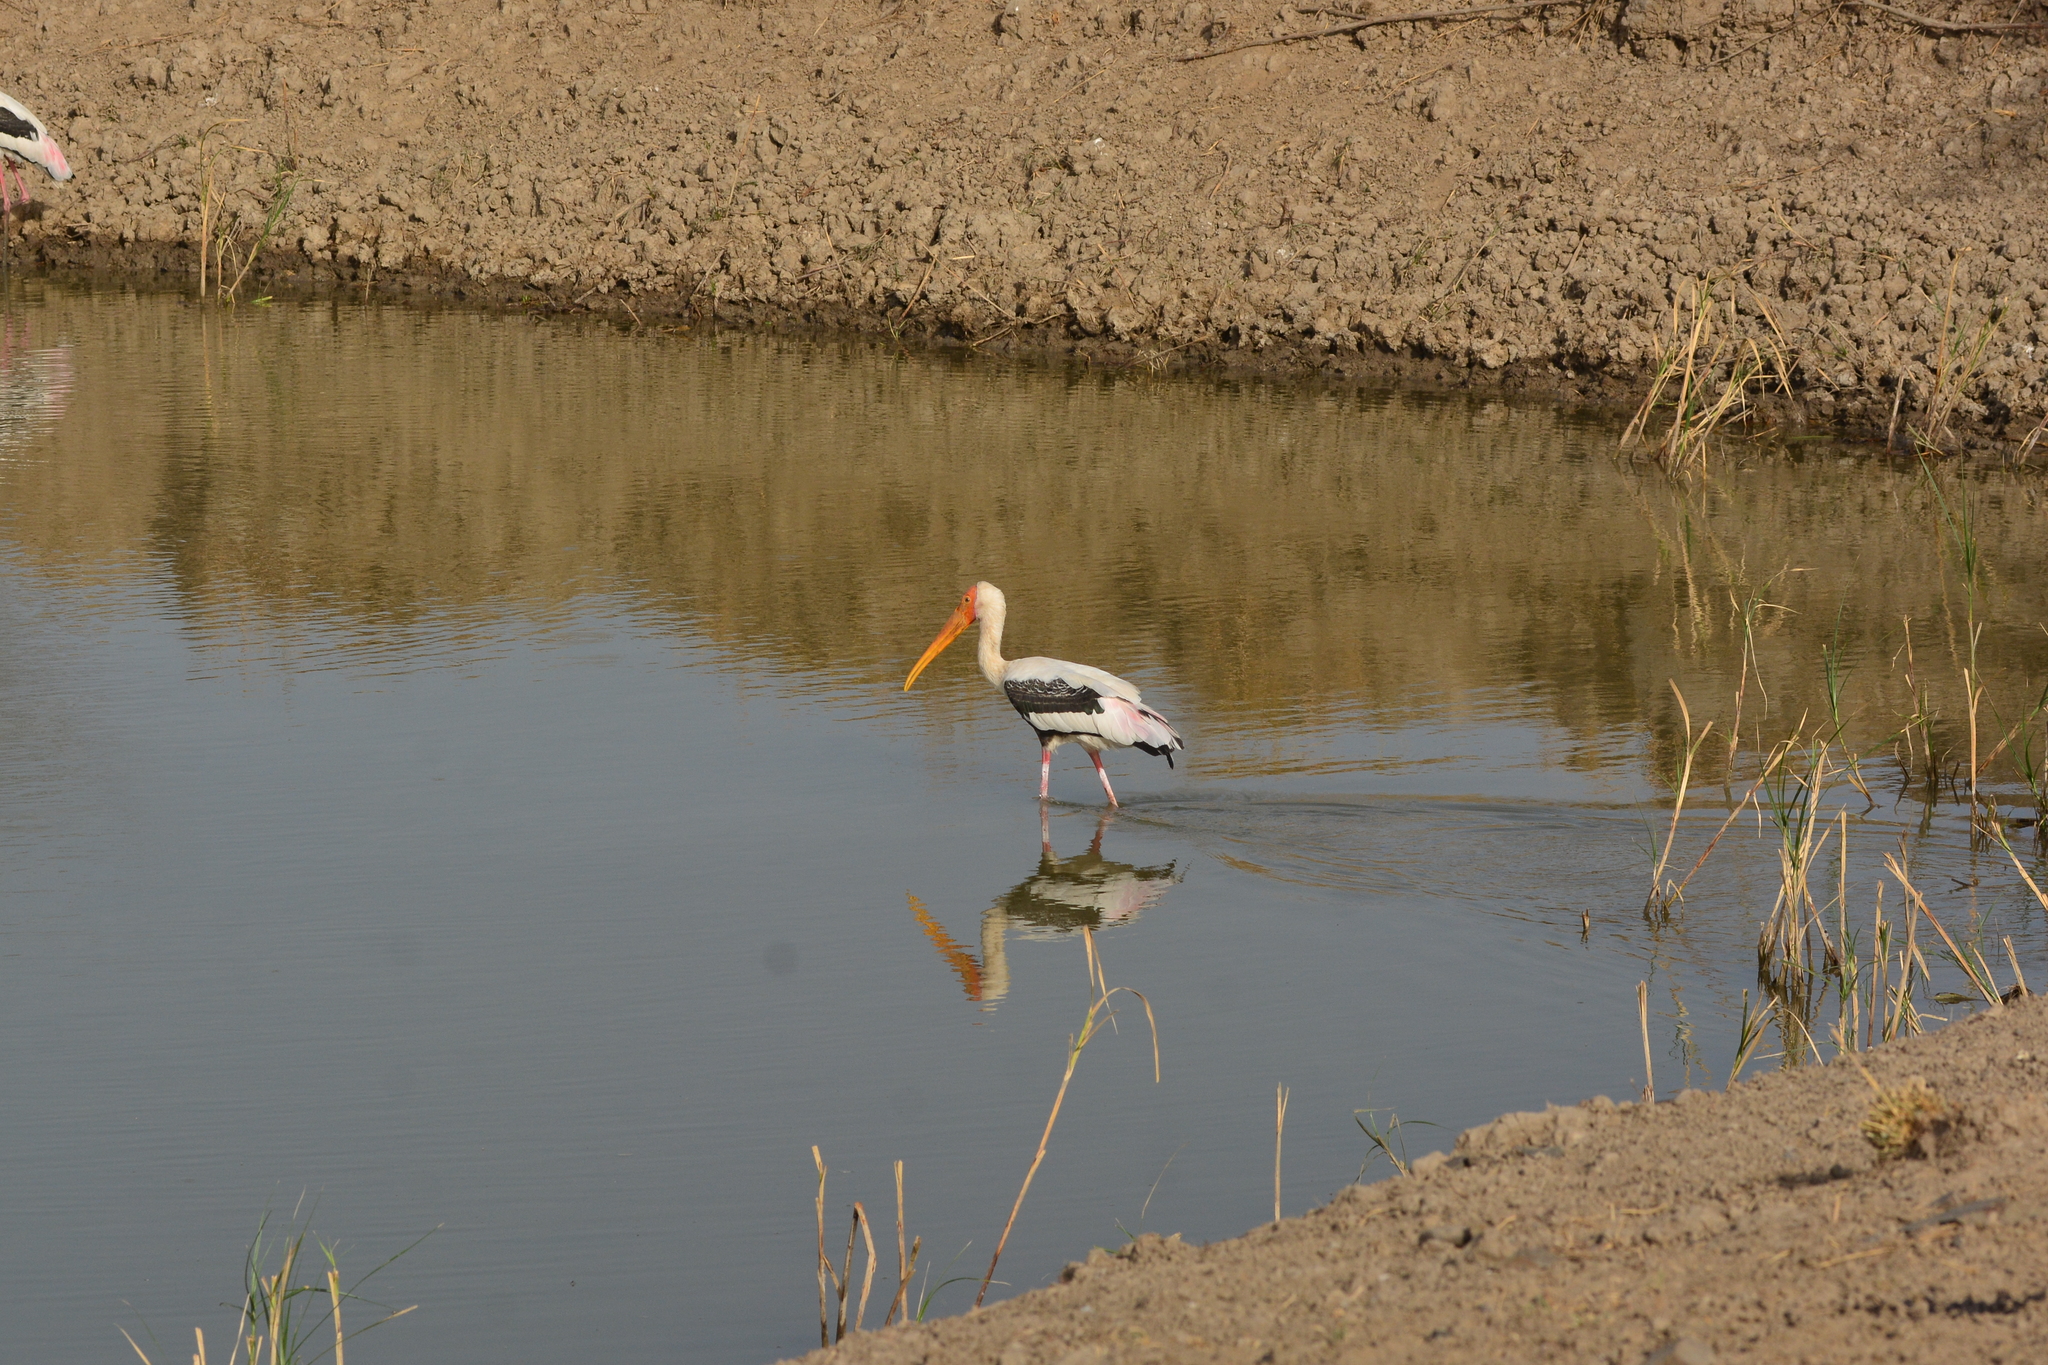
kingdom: Animalia
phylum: Chordata
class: Aves
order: Ciconiiformes
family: Ciconiidae
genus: Mycteria
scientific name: Mycteria leucocephala
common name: Painted stork
